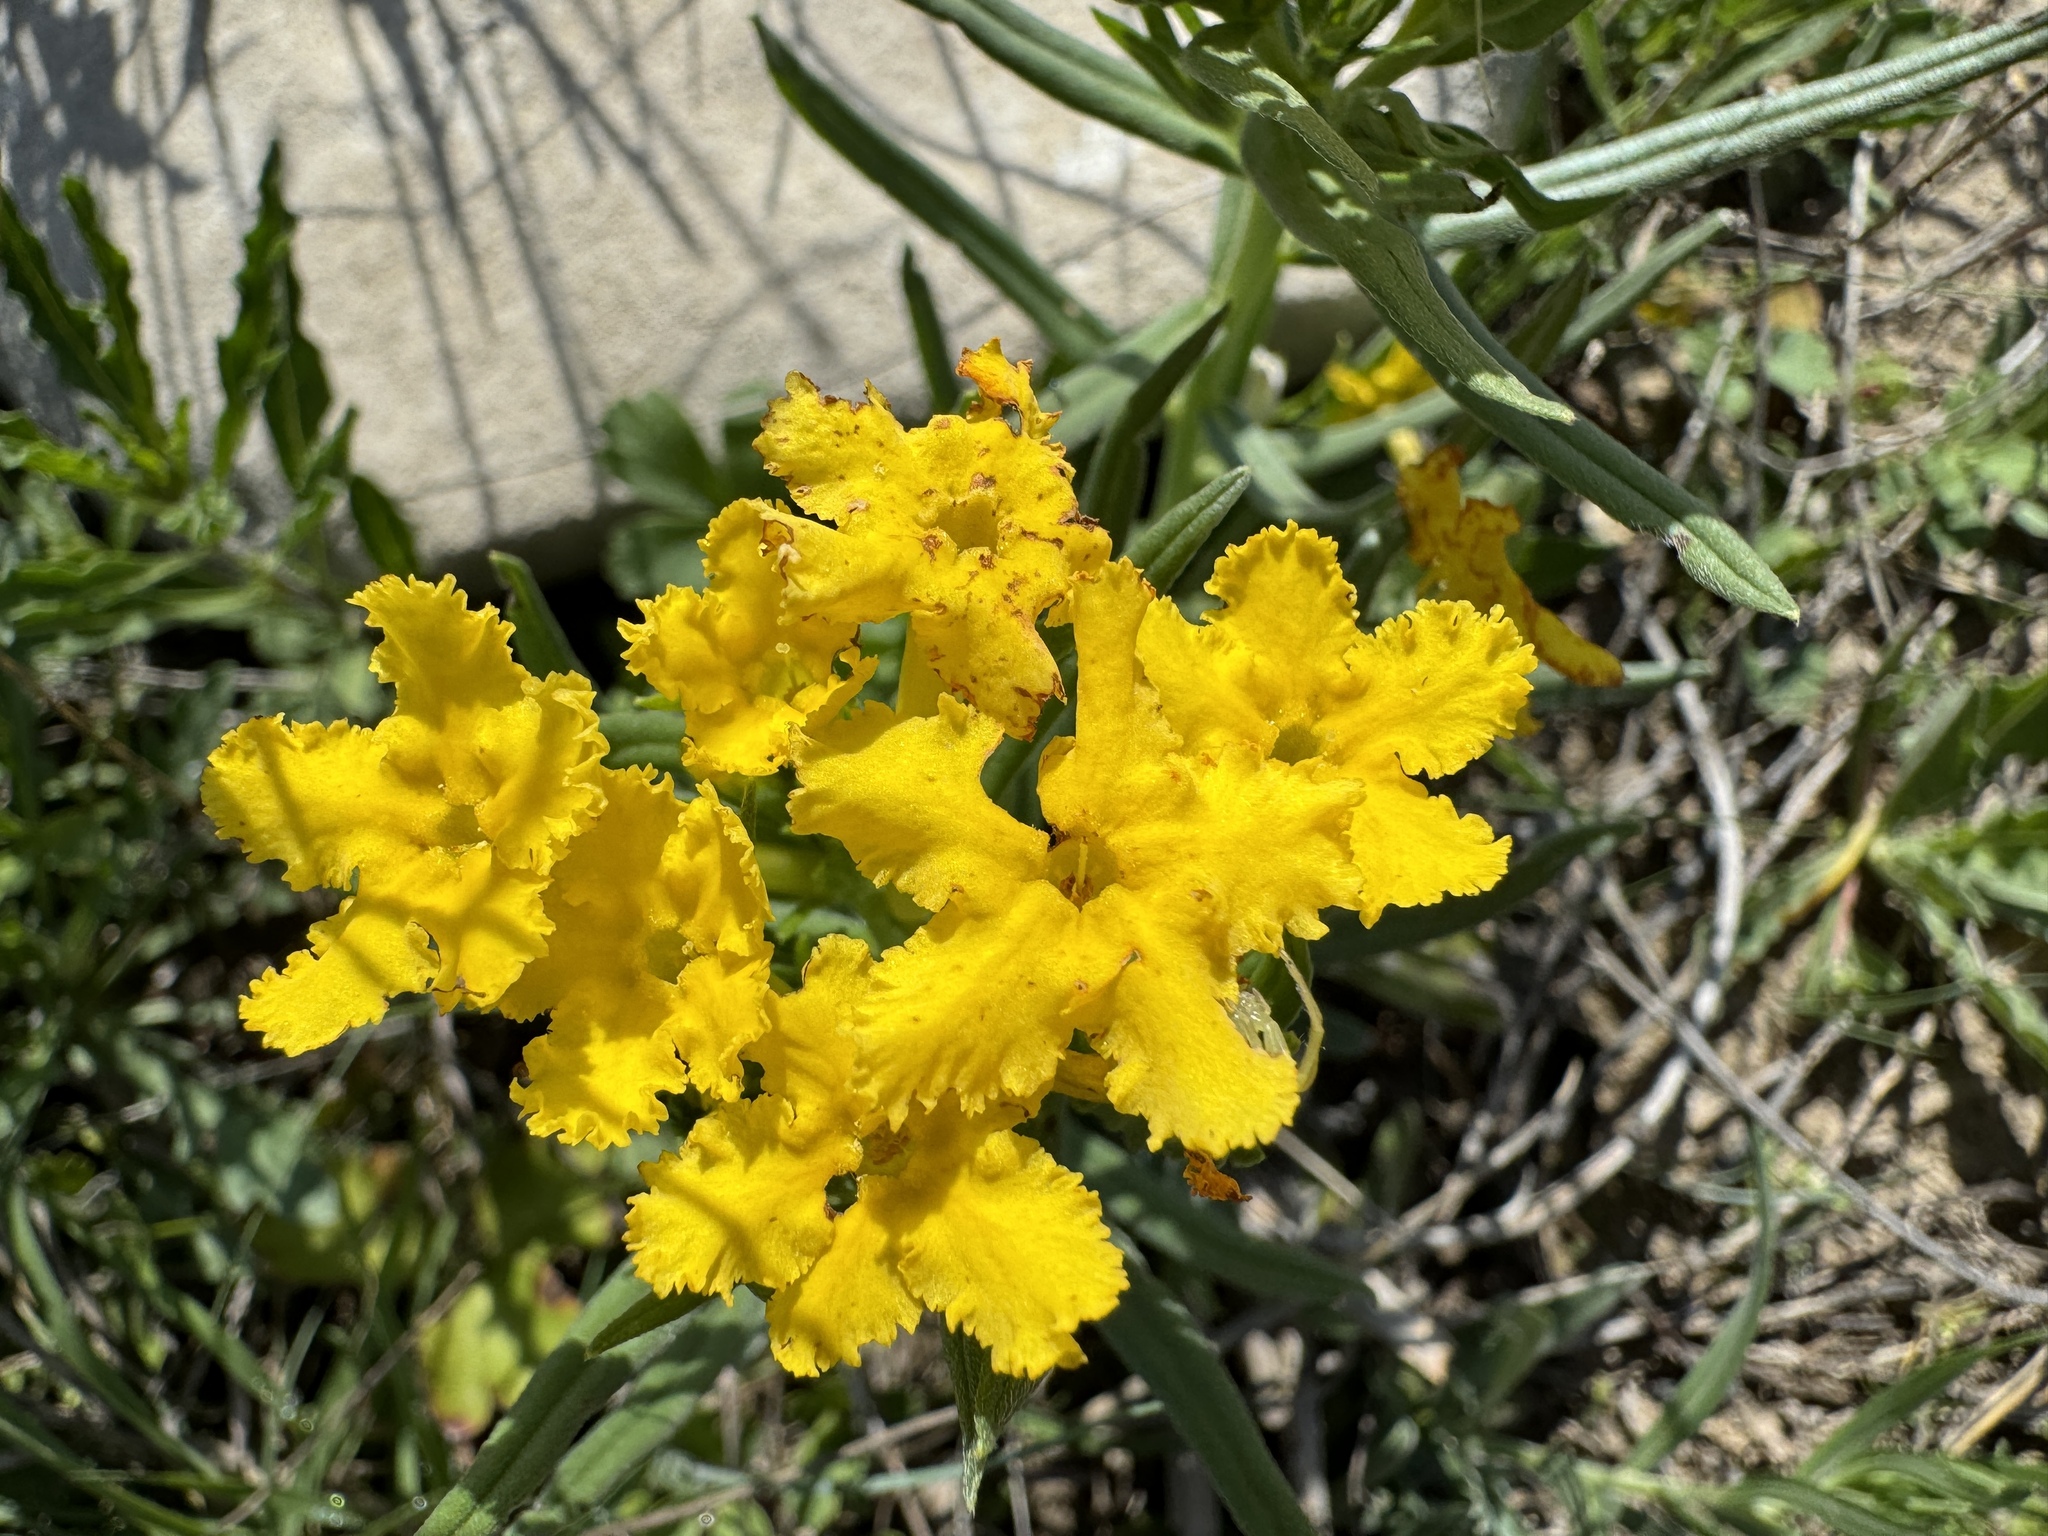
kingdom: Plantae
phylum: Tracheophyta
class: Magnoliopsida
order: Boraginales
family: Boraginaceae
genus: Lithospermum
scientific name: Lithospermum incisum
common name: Fringed gromwell
